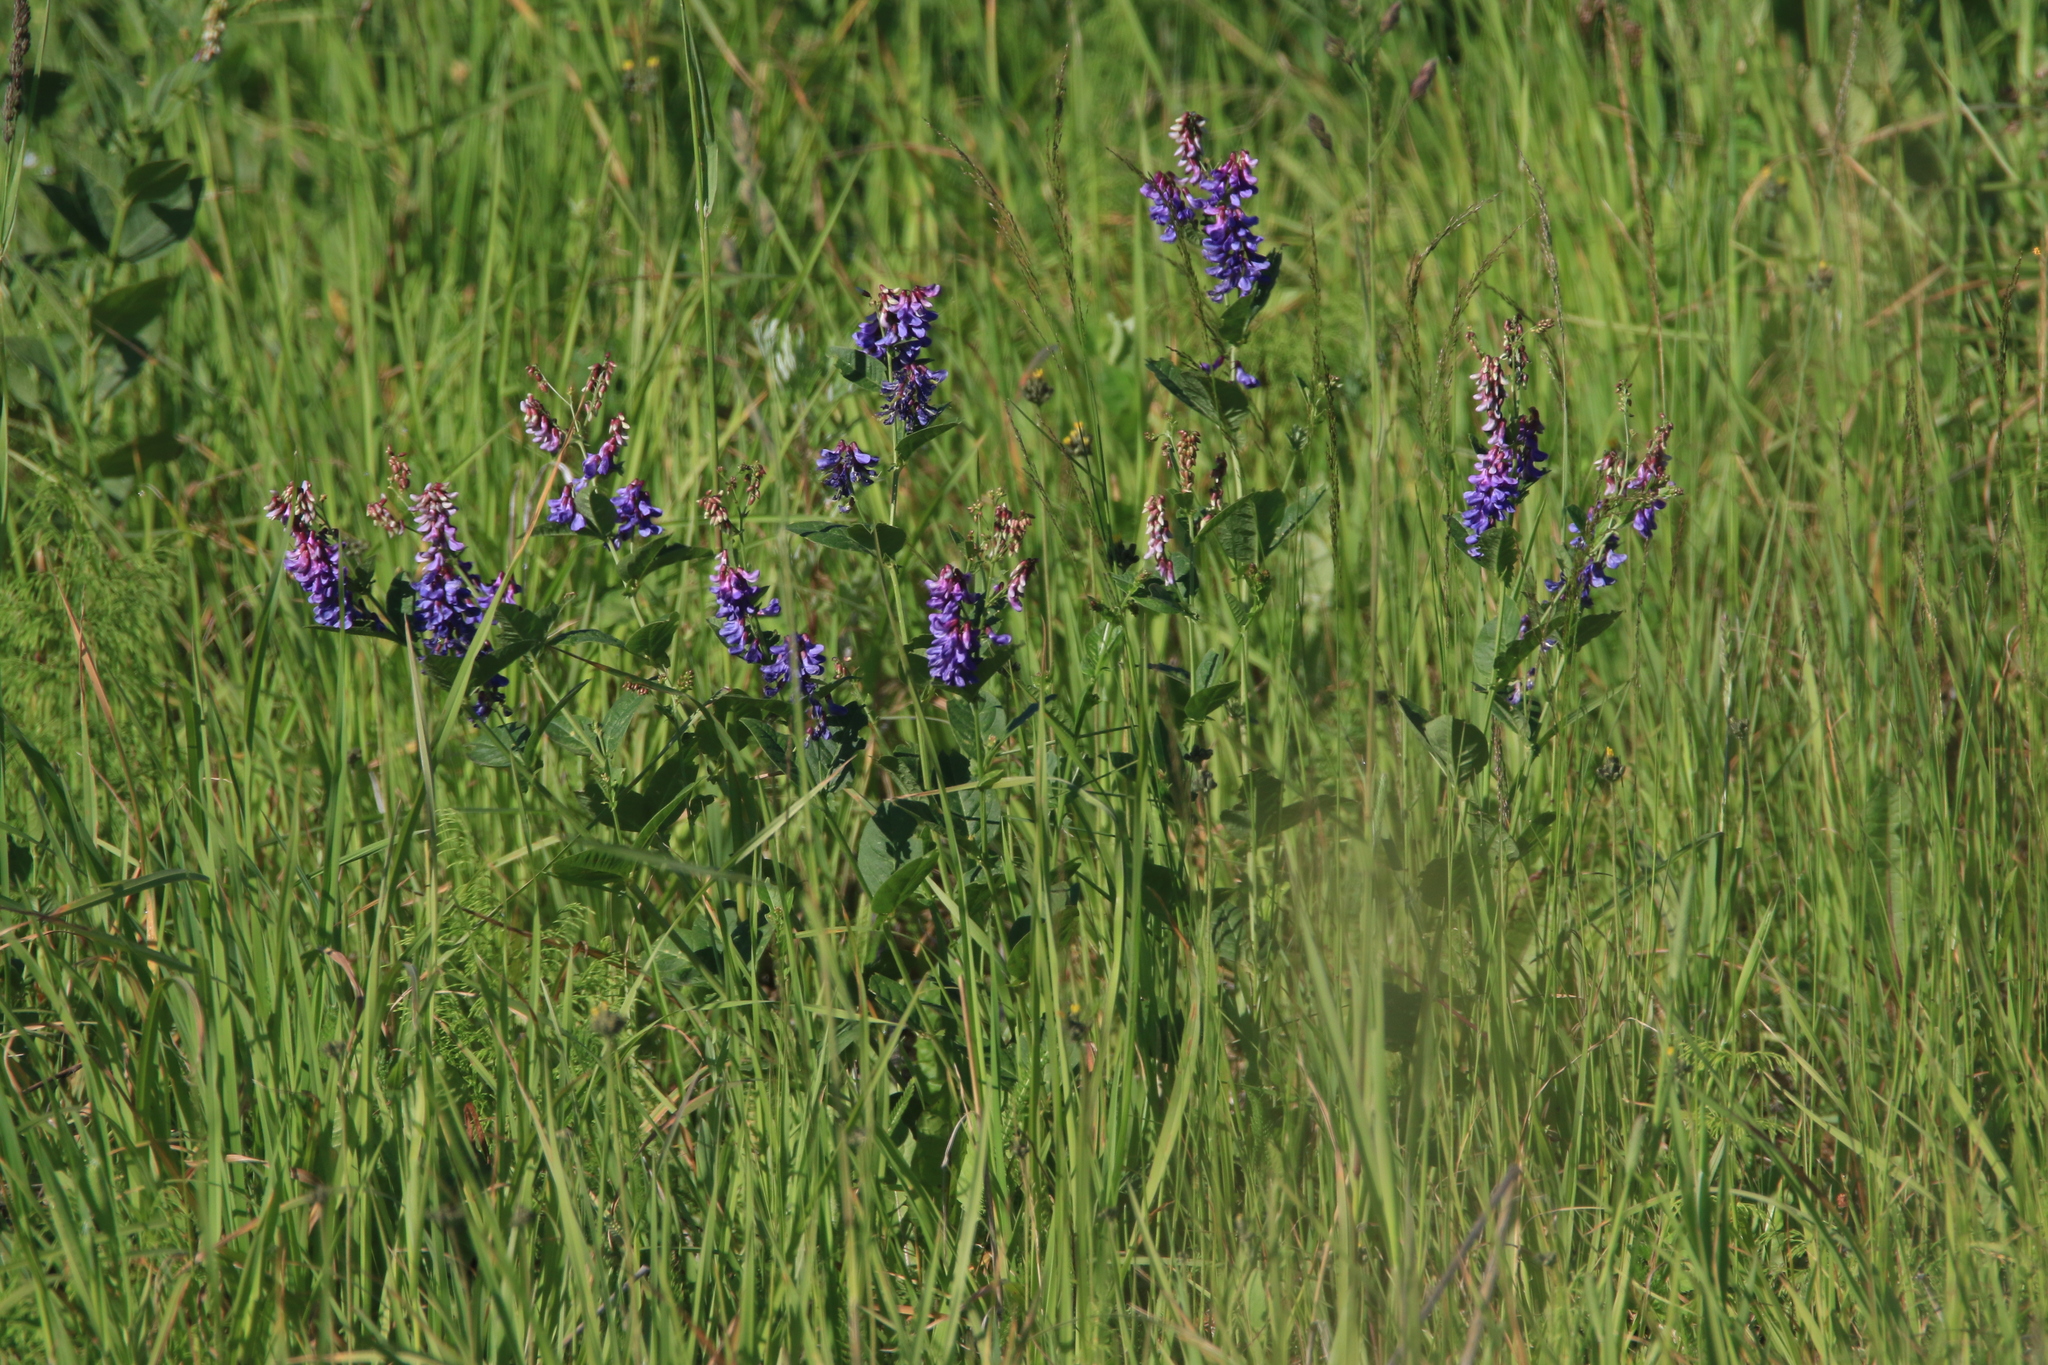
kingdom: Plantae
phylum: Tracheophyta
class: Magnoliopsida
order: Fabales
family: Fabaceae
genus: Vicia
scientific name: Vicia unijuga
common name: Two-leaf vetch
